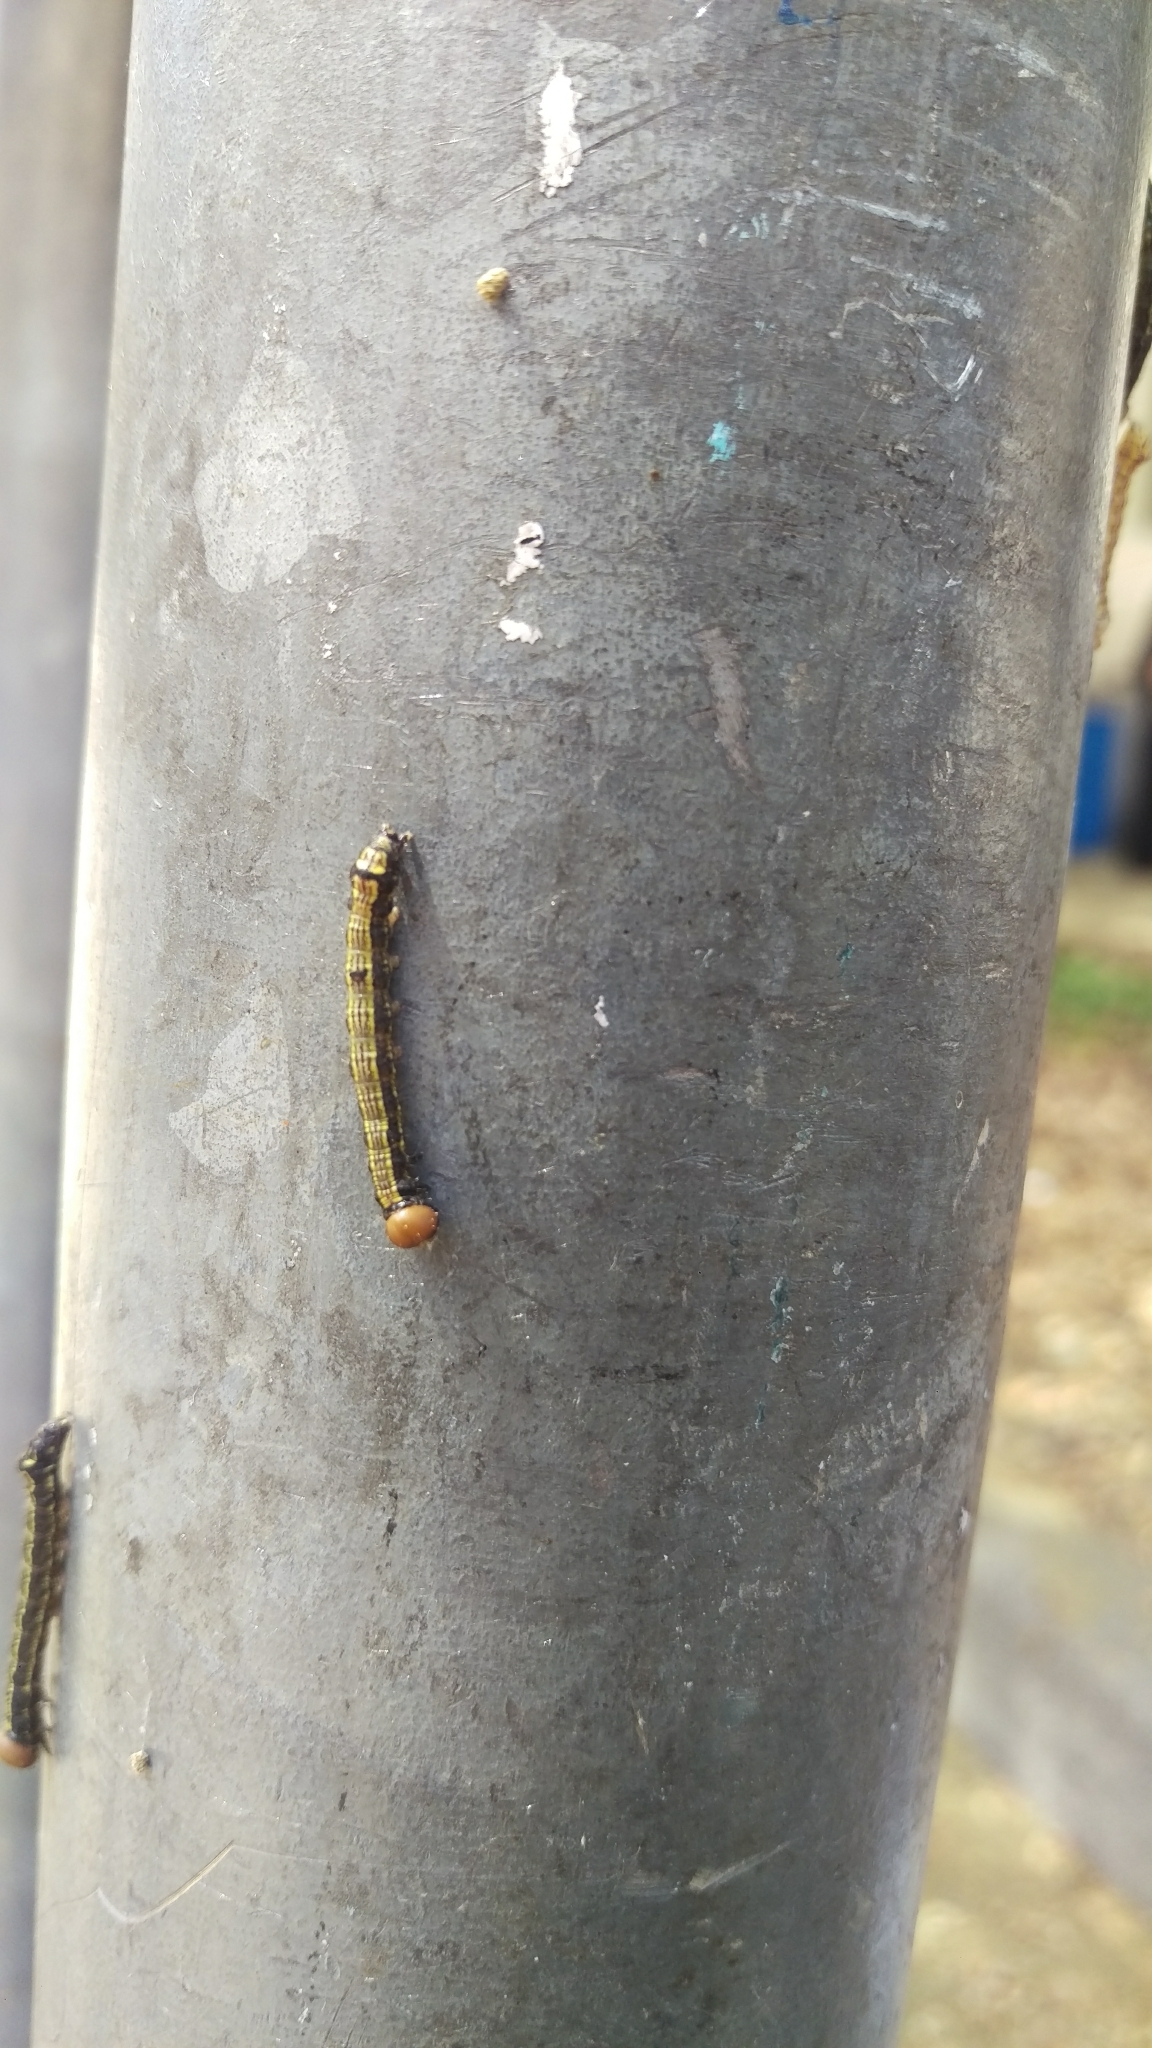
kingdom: Animalia
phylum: Arthropoda
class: Insecta
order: Lepidoptera
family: Notodontidae
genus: Phryganidia
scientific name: Phryganidia californica
